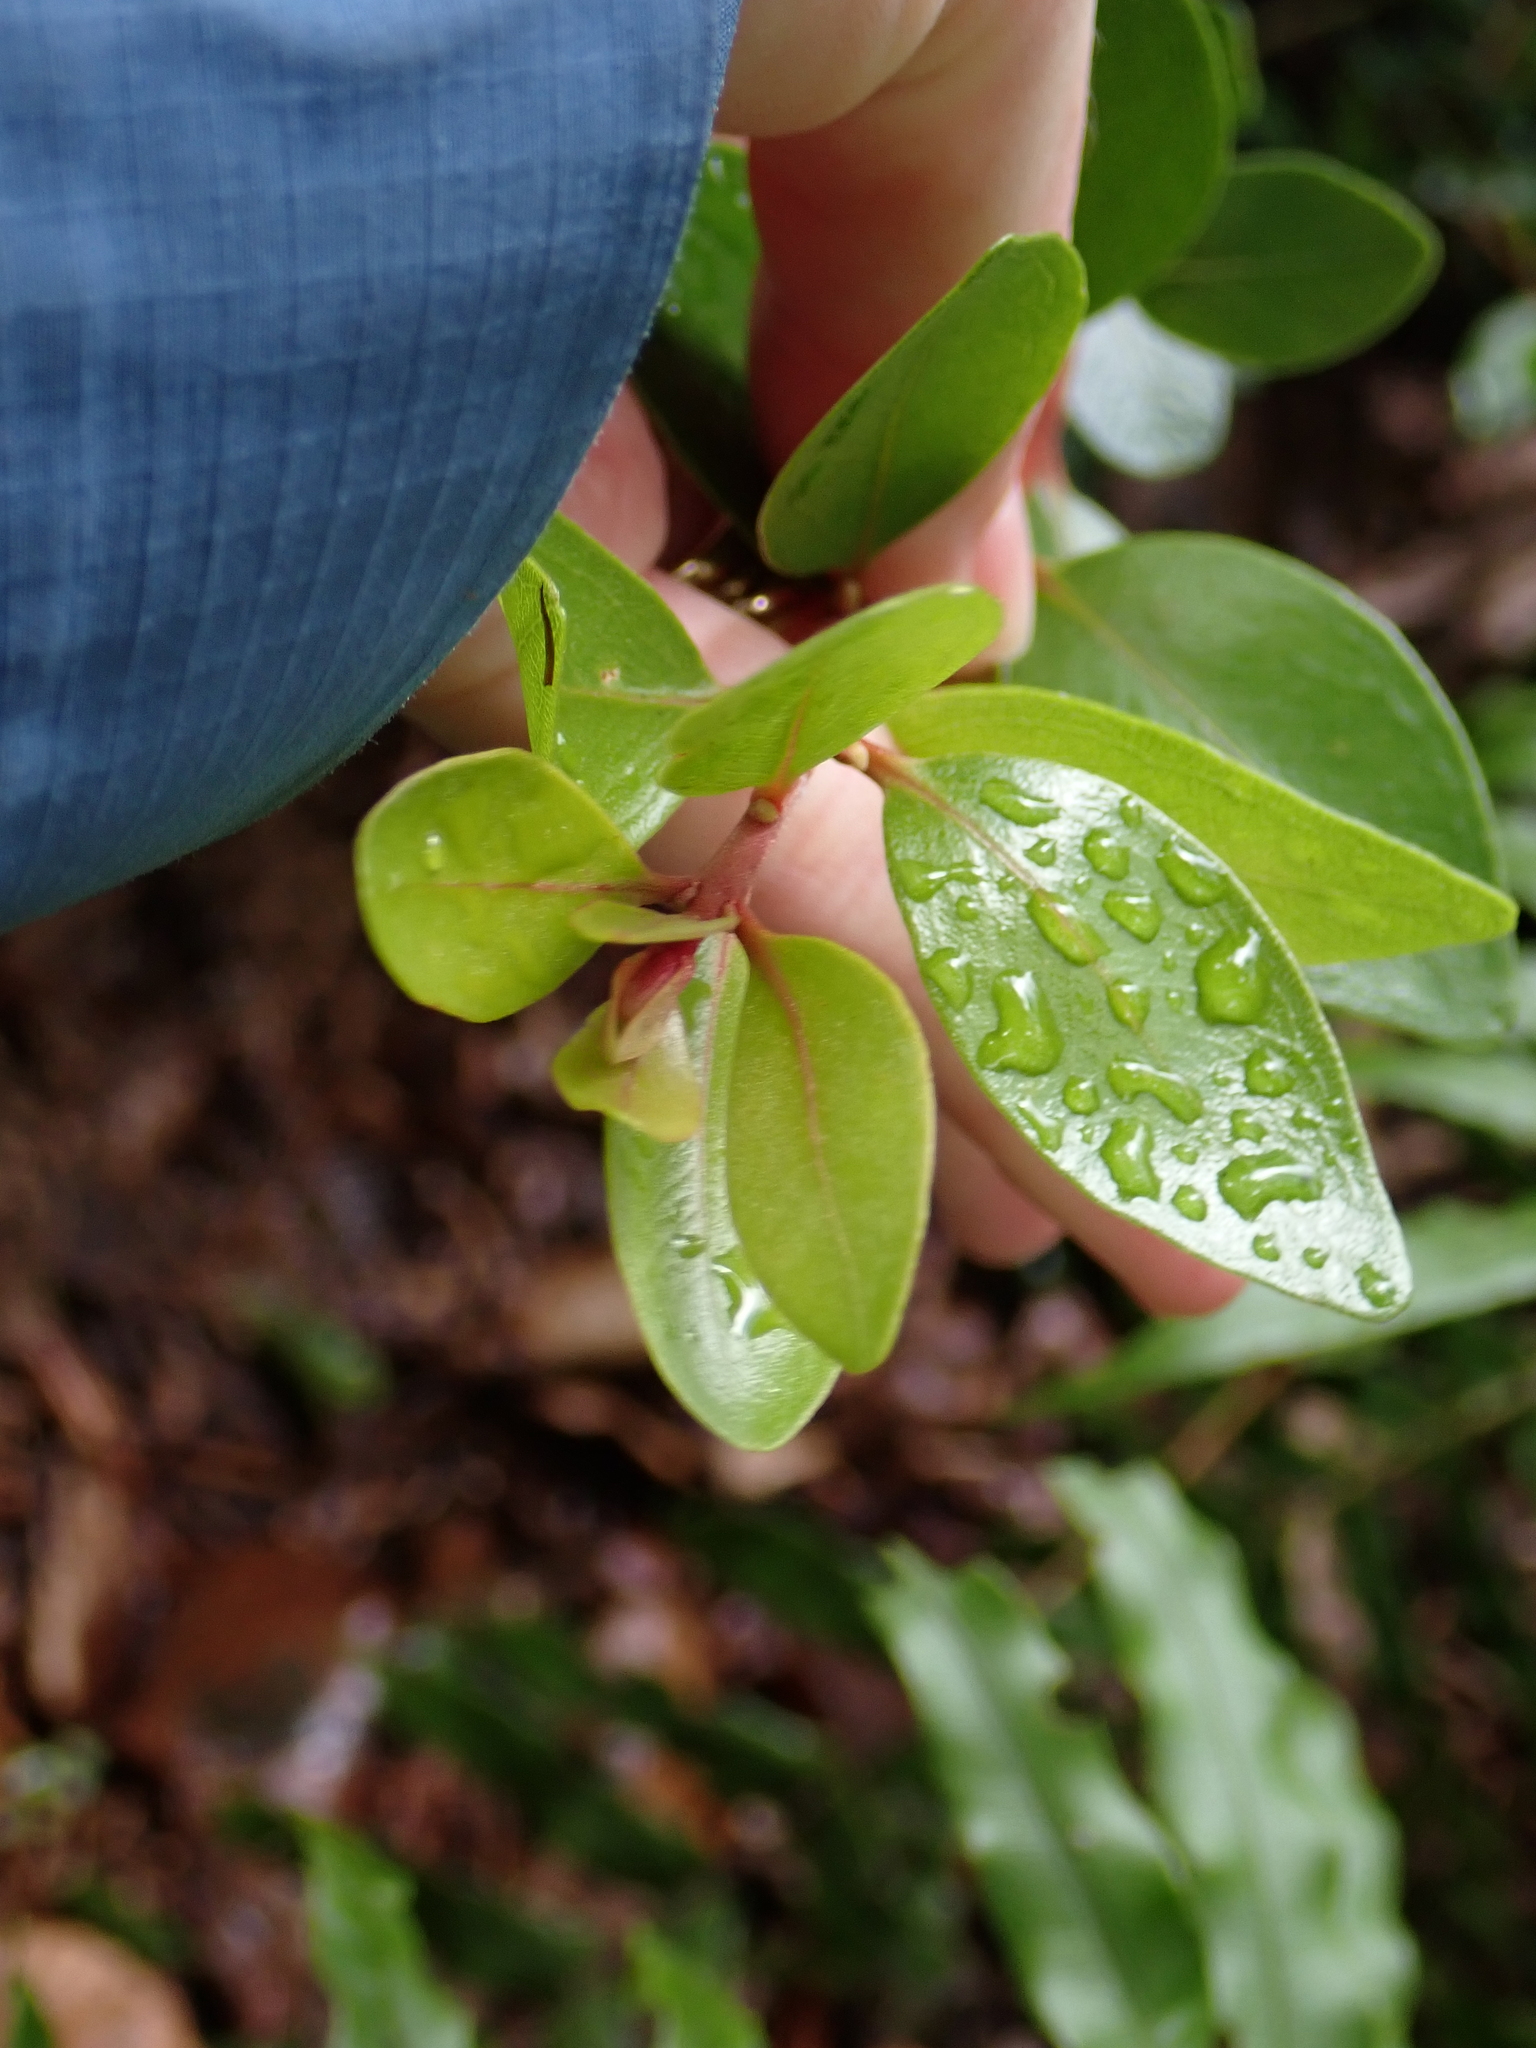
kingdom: Plantae
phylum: Tracheophyta
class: Magnoliopsida
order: Myrtales
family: Myrtaceae
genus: Metrosideros
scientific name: Metrosideros robusta
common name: Northern rata
